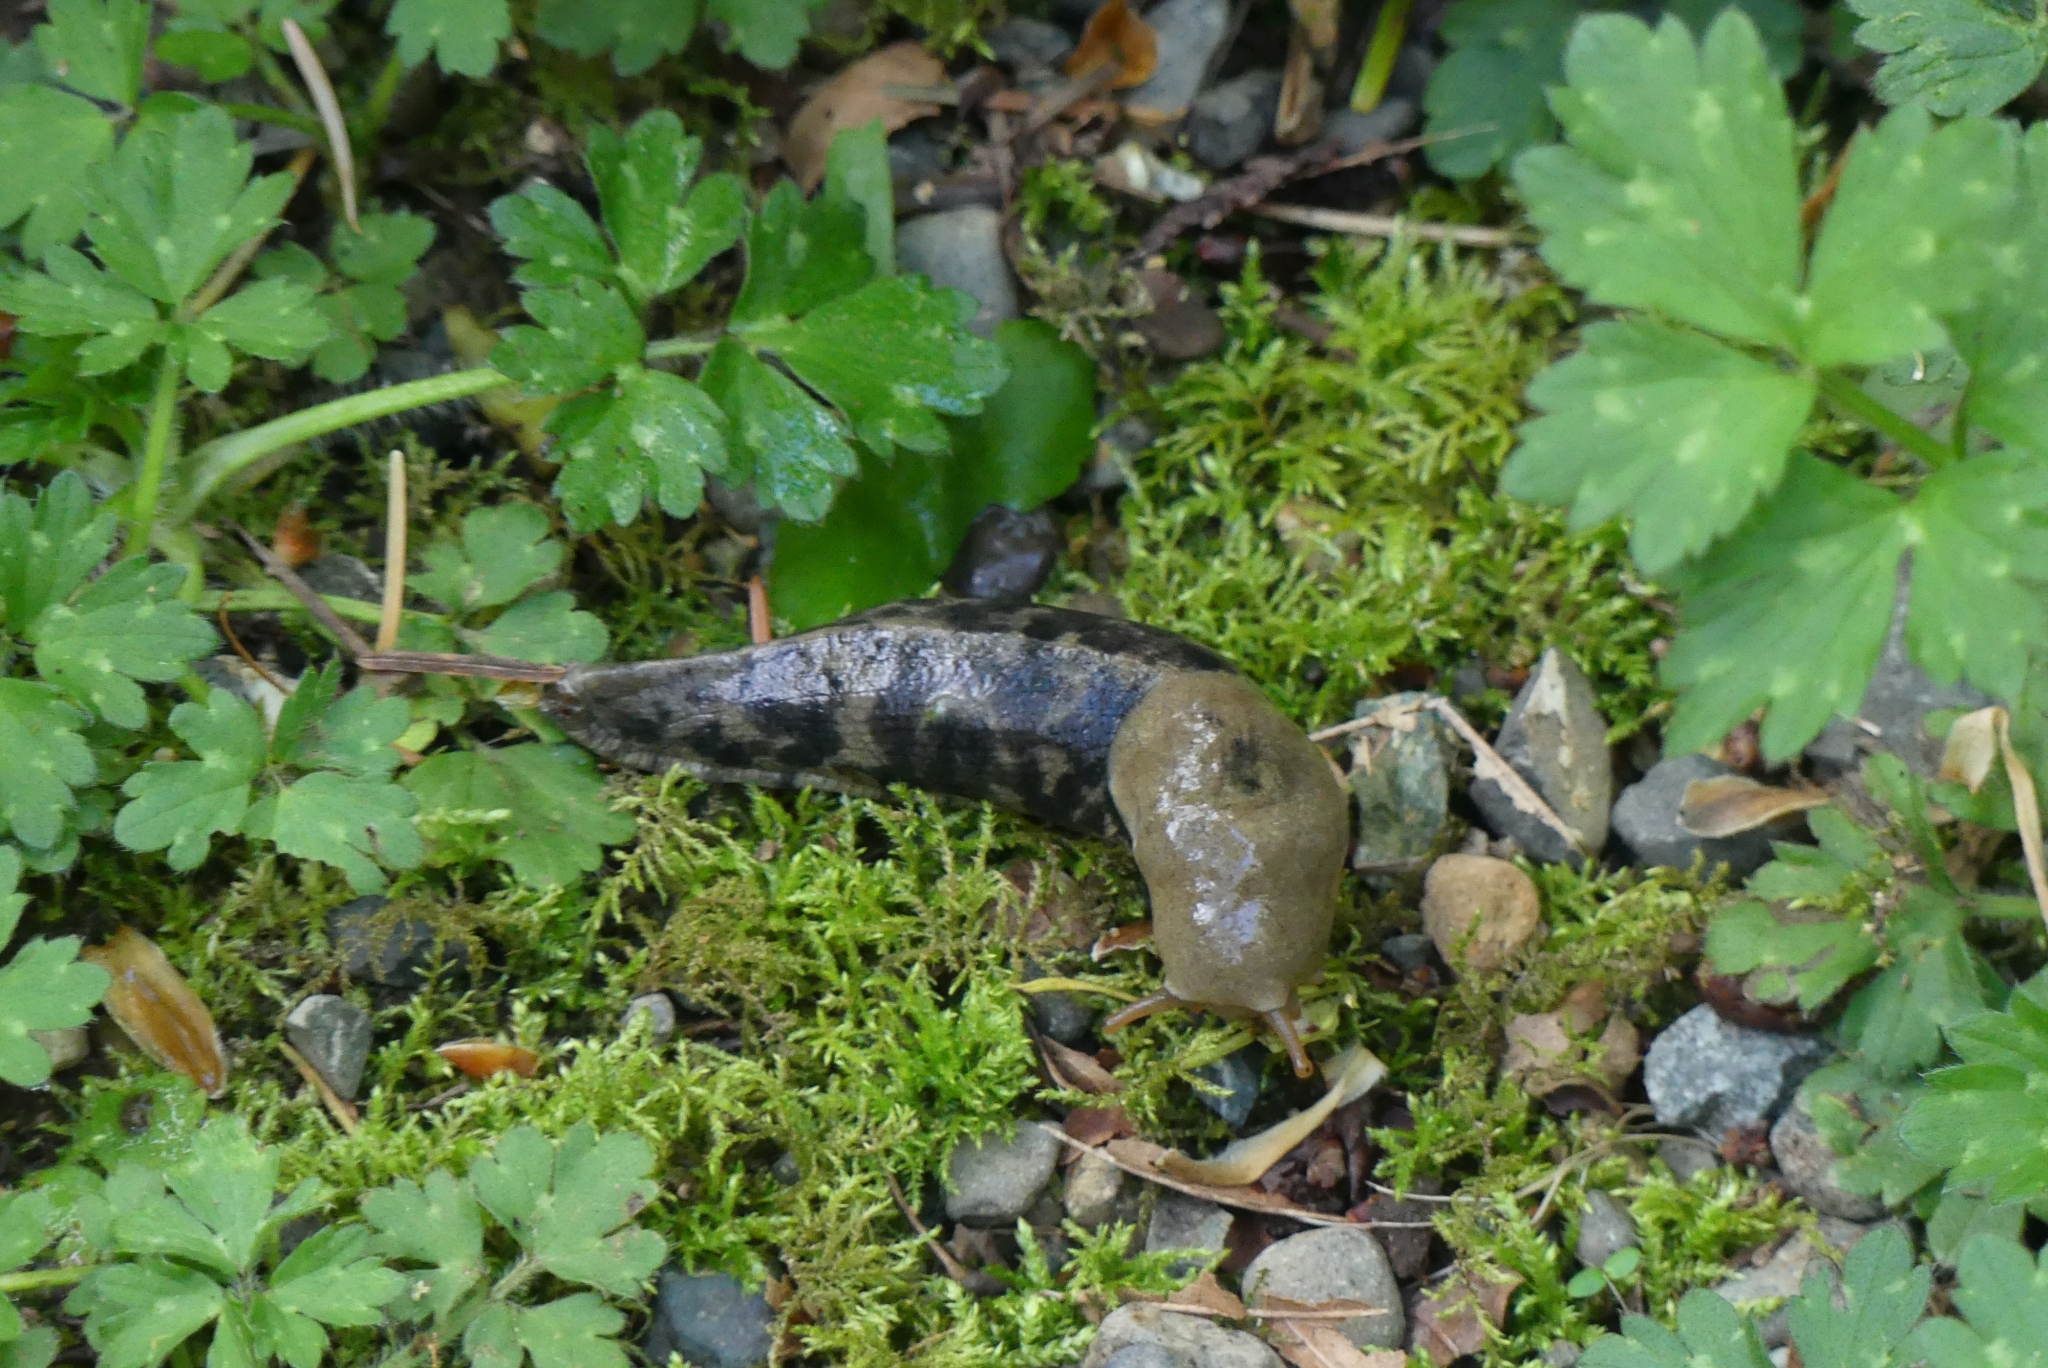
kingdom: Animalia
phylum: Mollusca
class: Gastropoda
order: Stylommatophora
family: Ariolimacidae
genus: Ariolimax
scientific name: Ariolimax columbianus
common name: Pacific banana slug
